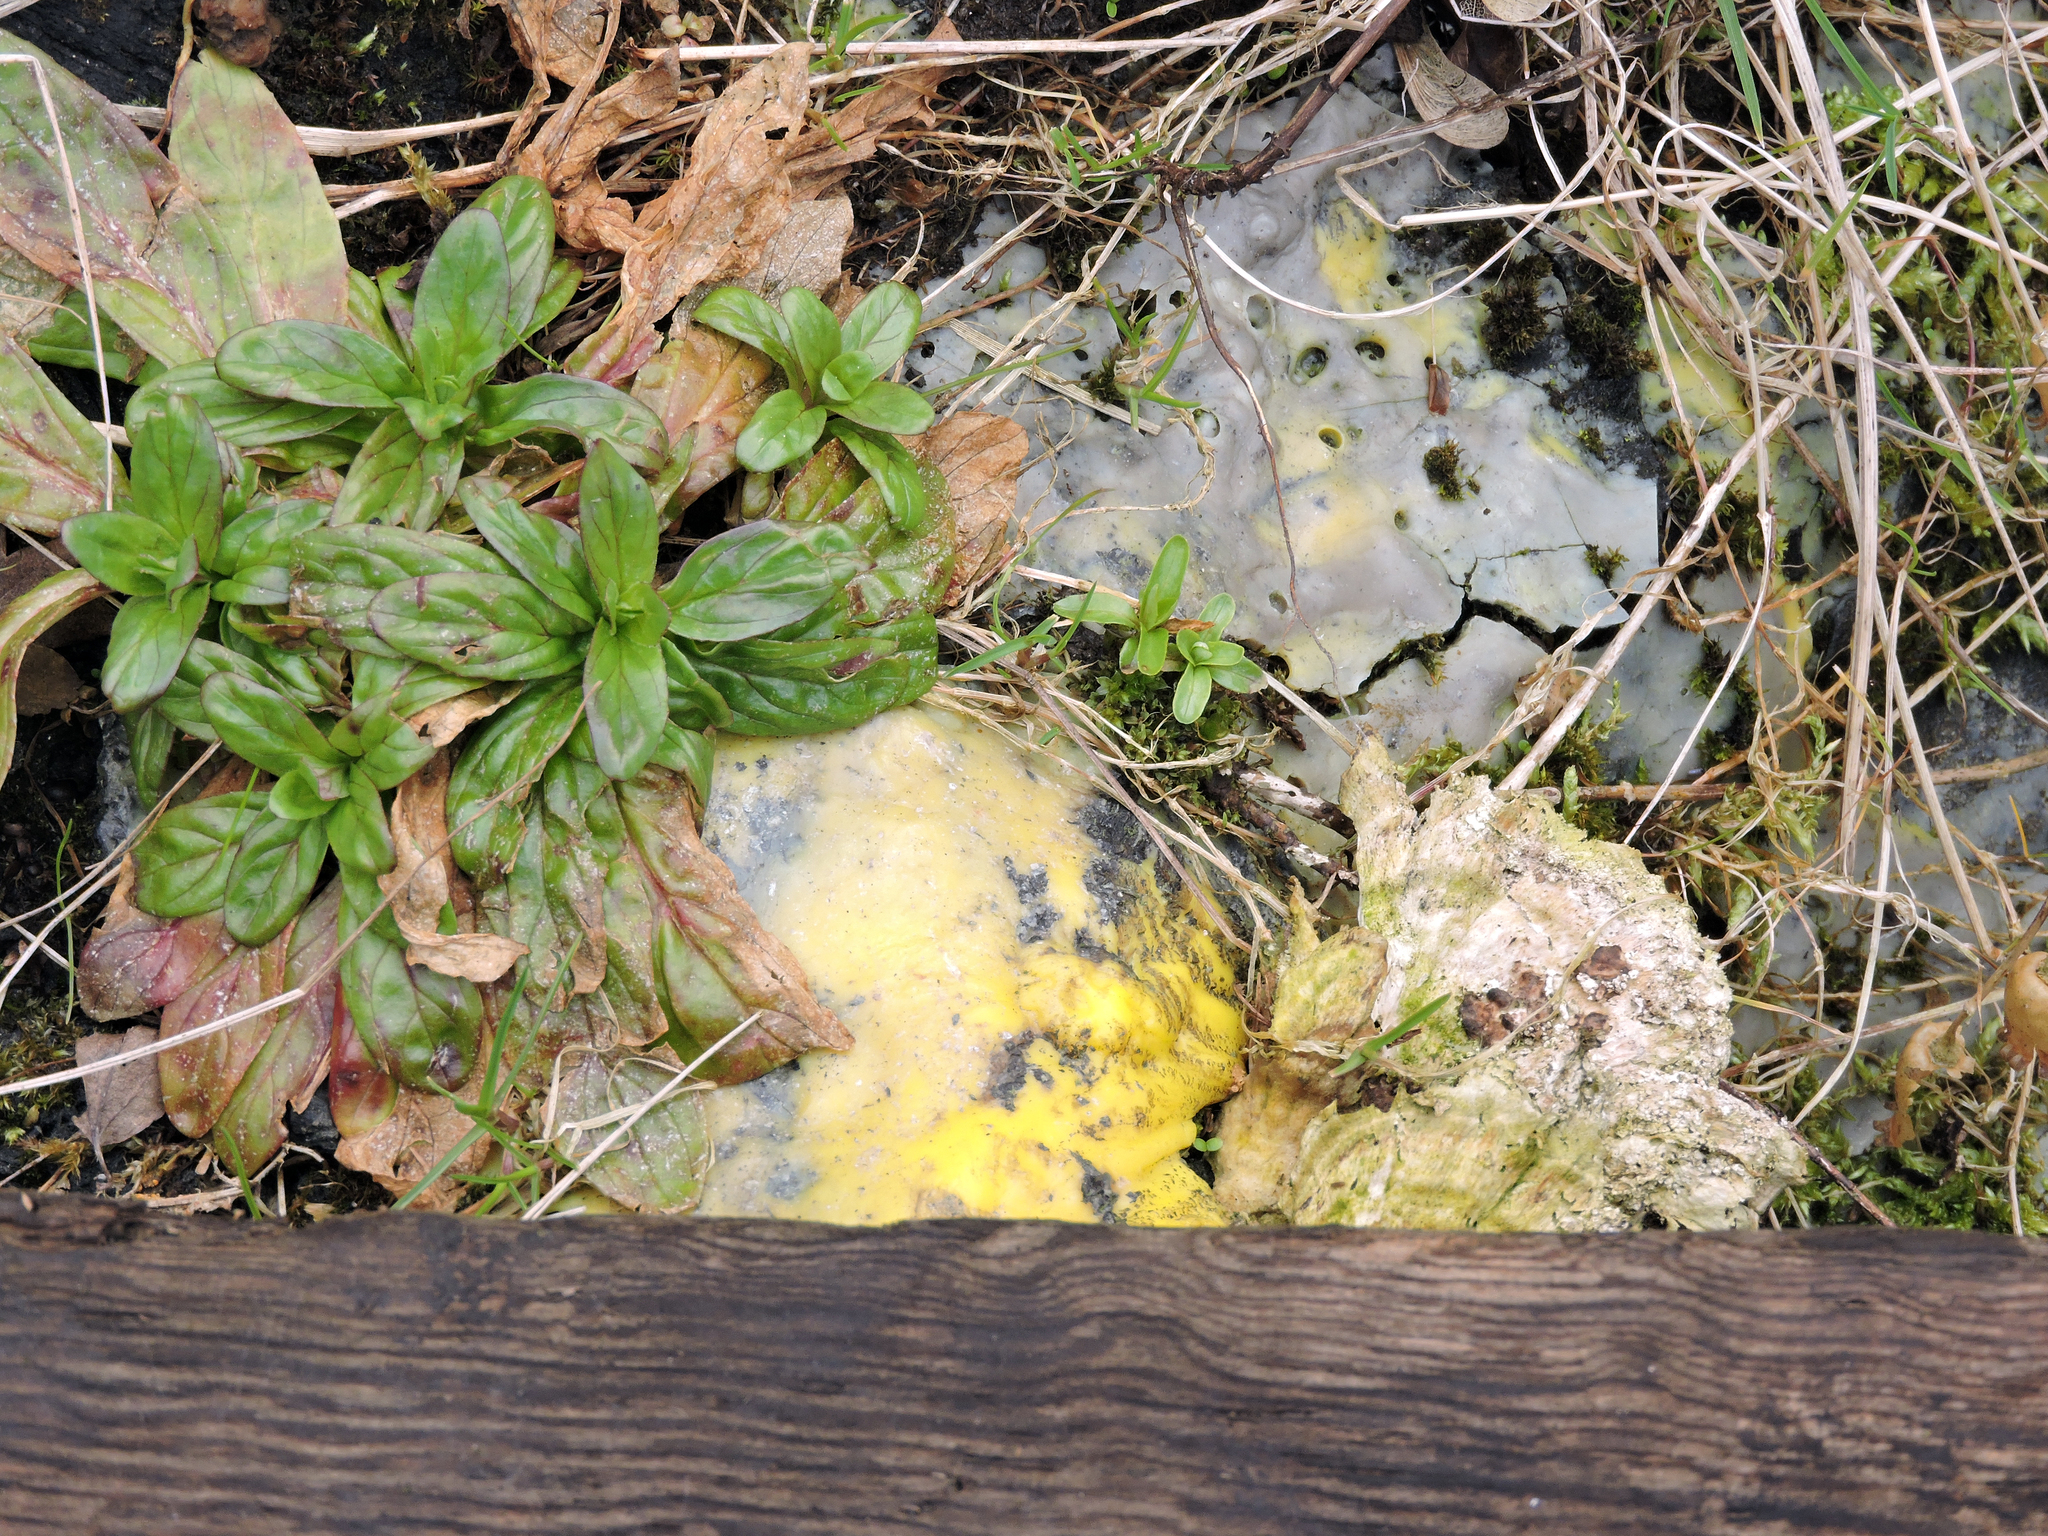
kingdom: Protozoa
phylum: Mycetozoa
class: Myxomycetes
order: Physarales
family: Physaraceae
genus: Fuligo
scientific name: Fuligo septica
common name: Dog vomit slime mold
